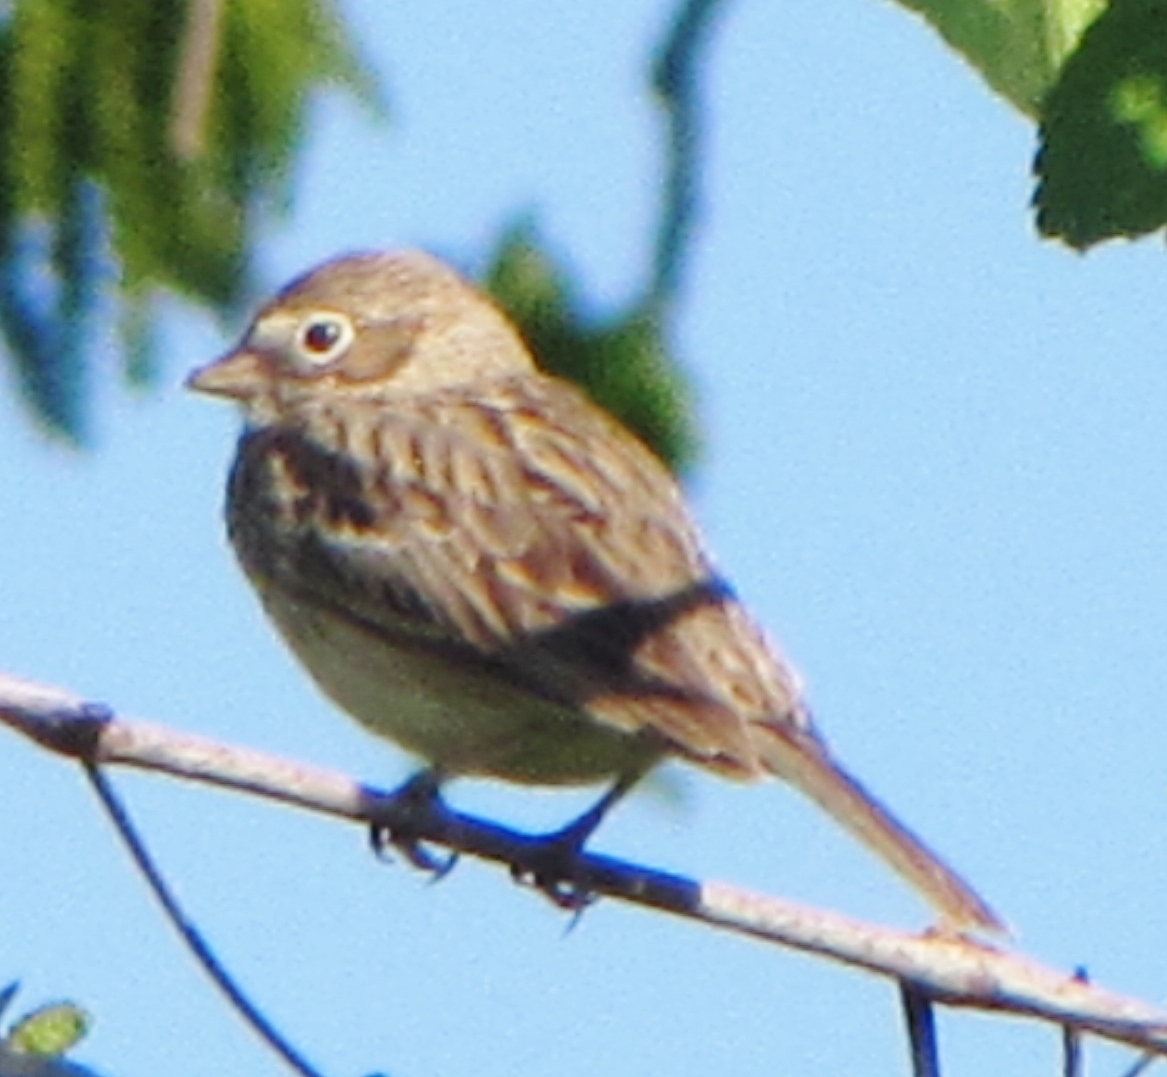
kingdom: Animalia
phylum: Chordata
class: Aves
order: Passeriformes
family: Passerellidae
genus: Pooecetes
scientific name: Pooecetes gramineus
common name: Vesper sparrow
